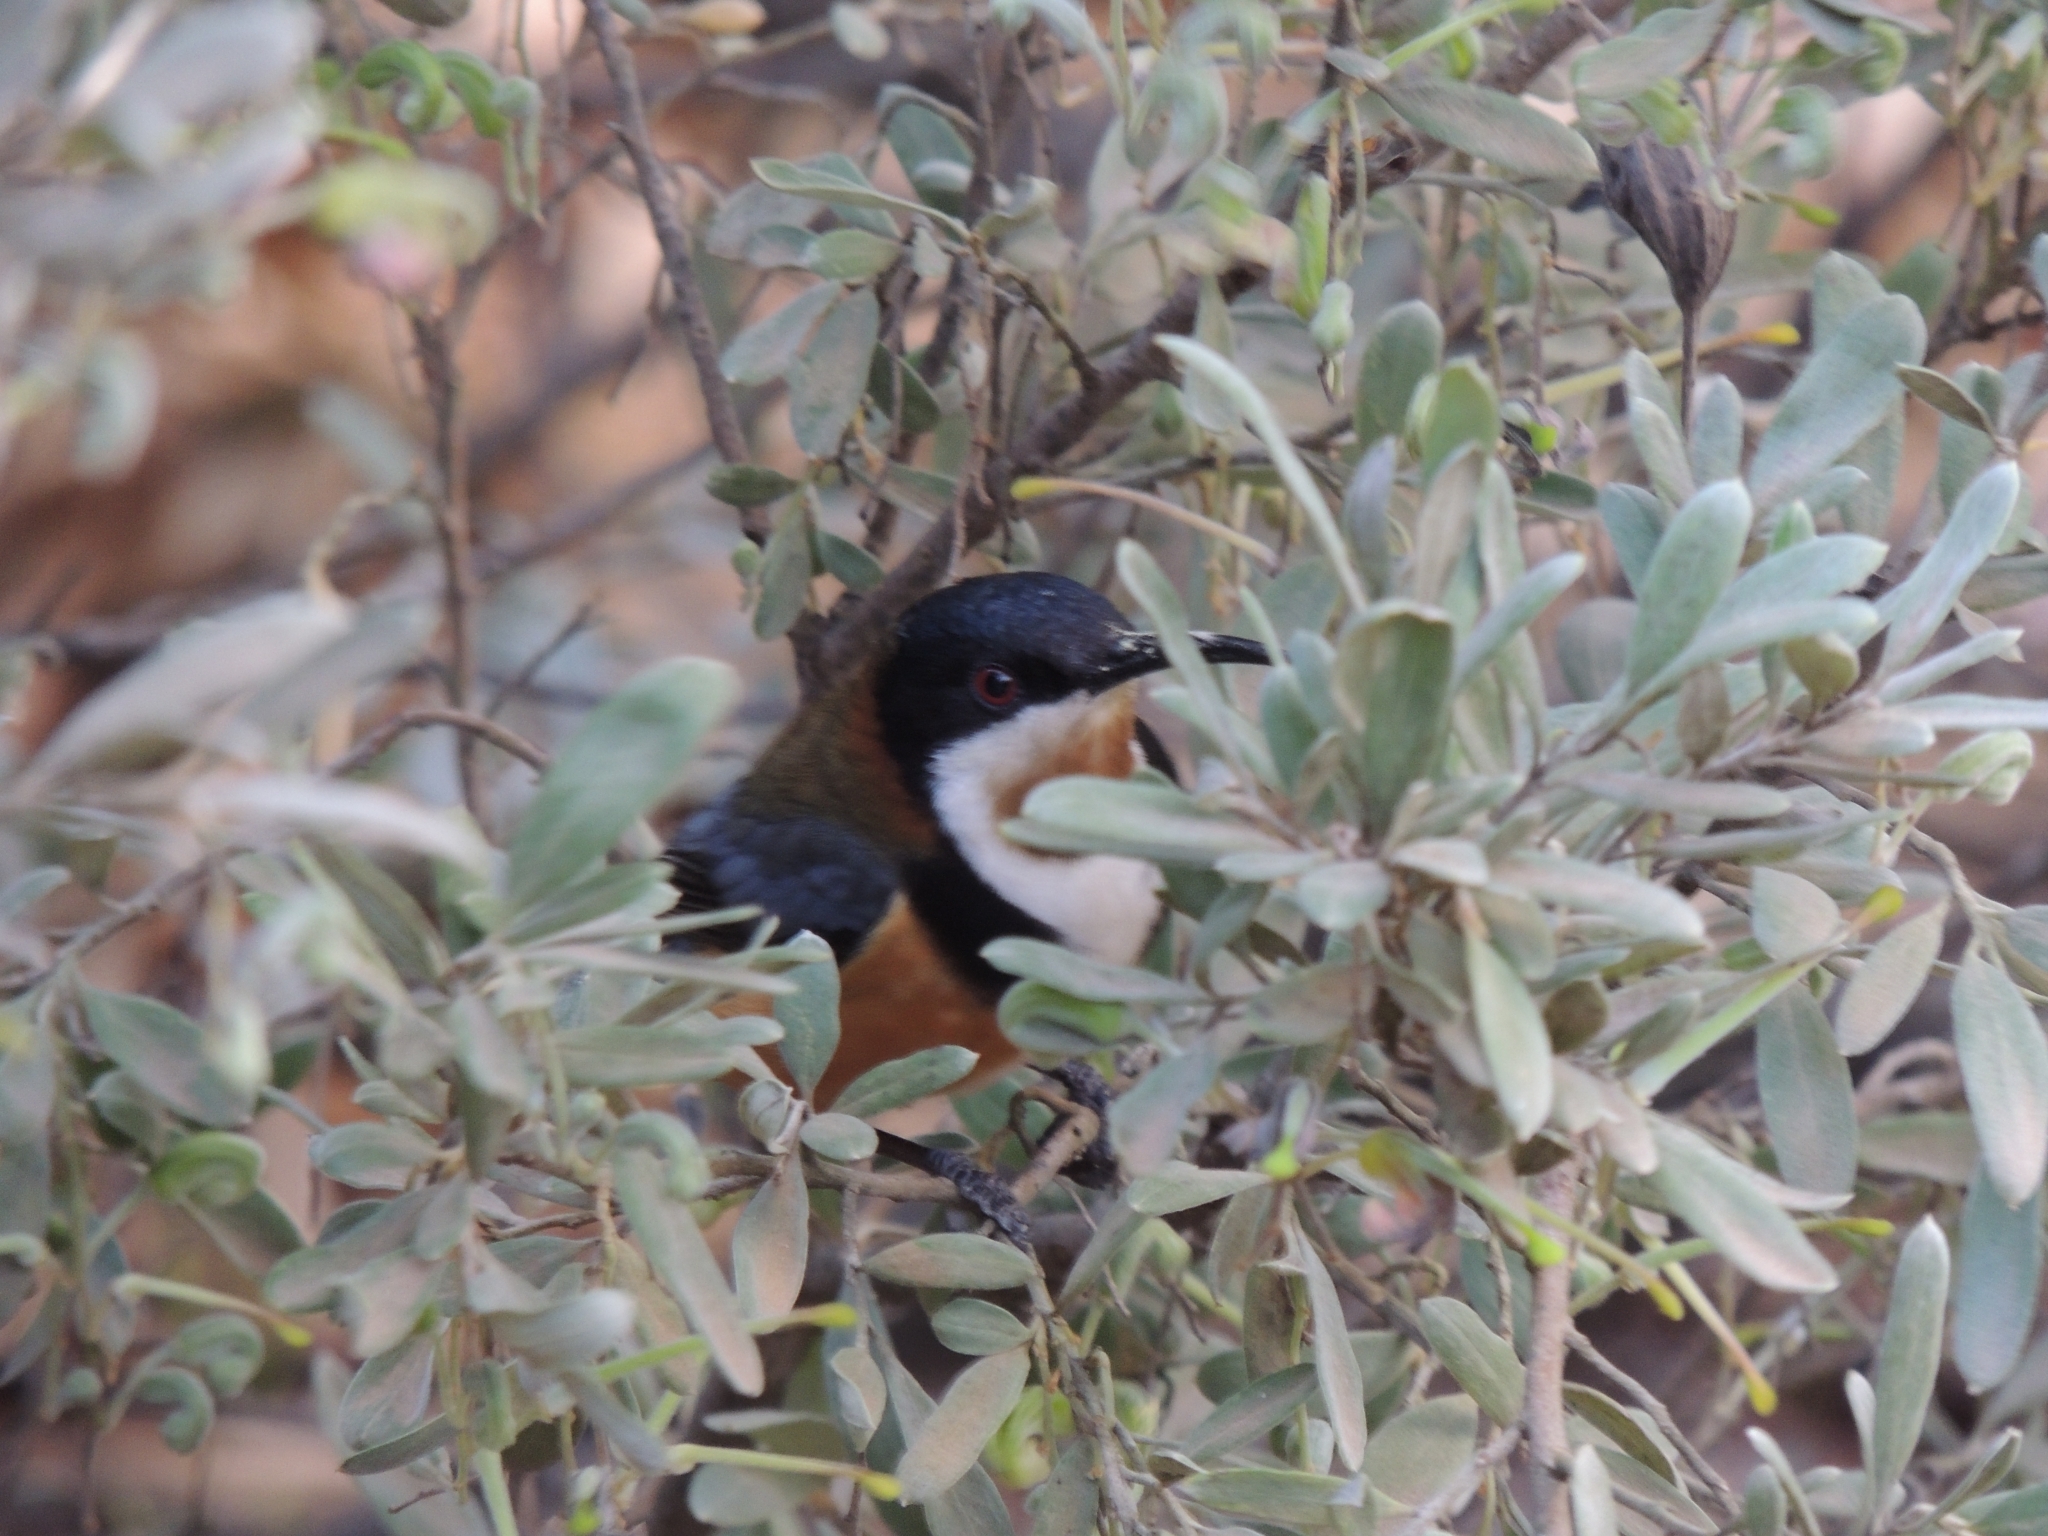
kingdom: Animalia
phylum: Chordata
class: Aves
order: Passeriformes
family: Meliphagidae
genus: Acanthorhynchus
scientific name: Acanthorhynchus tenuirostris
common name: Eastern spinebill
